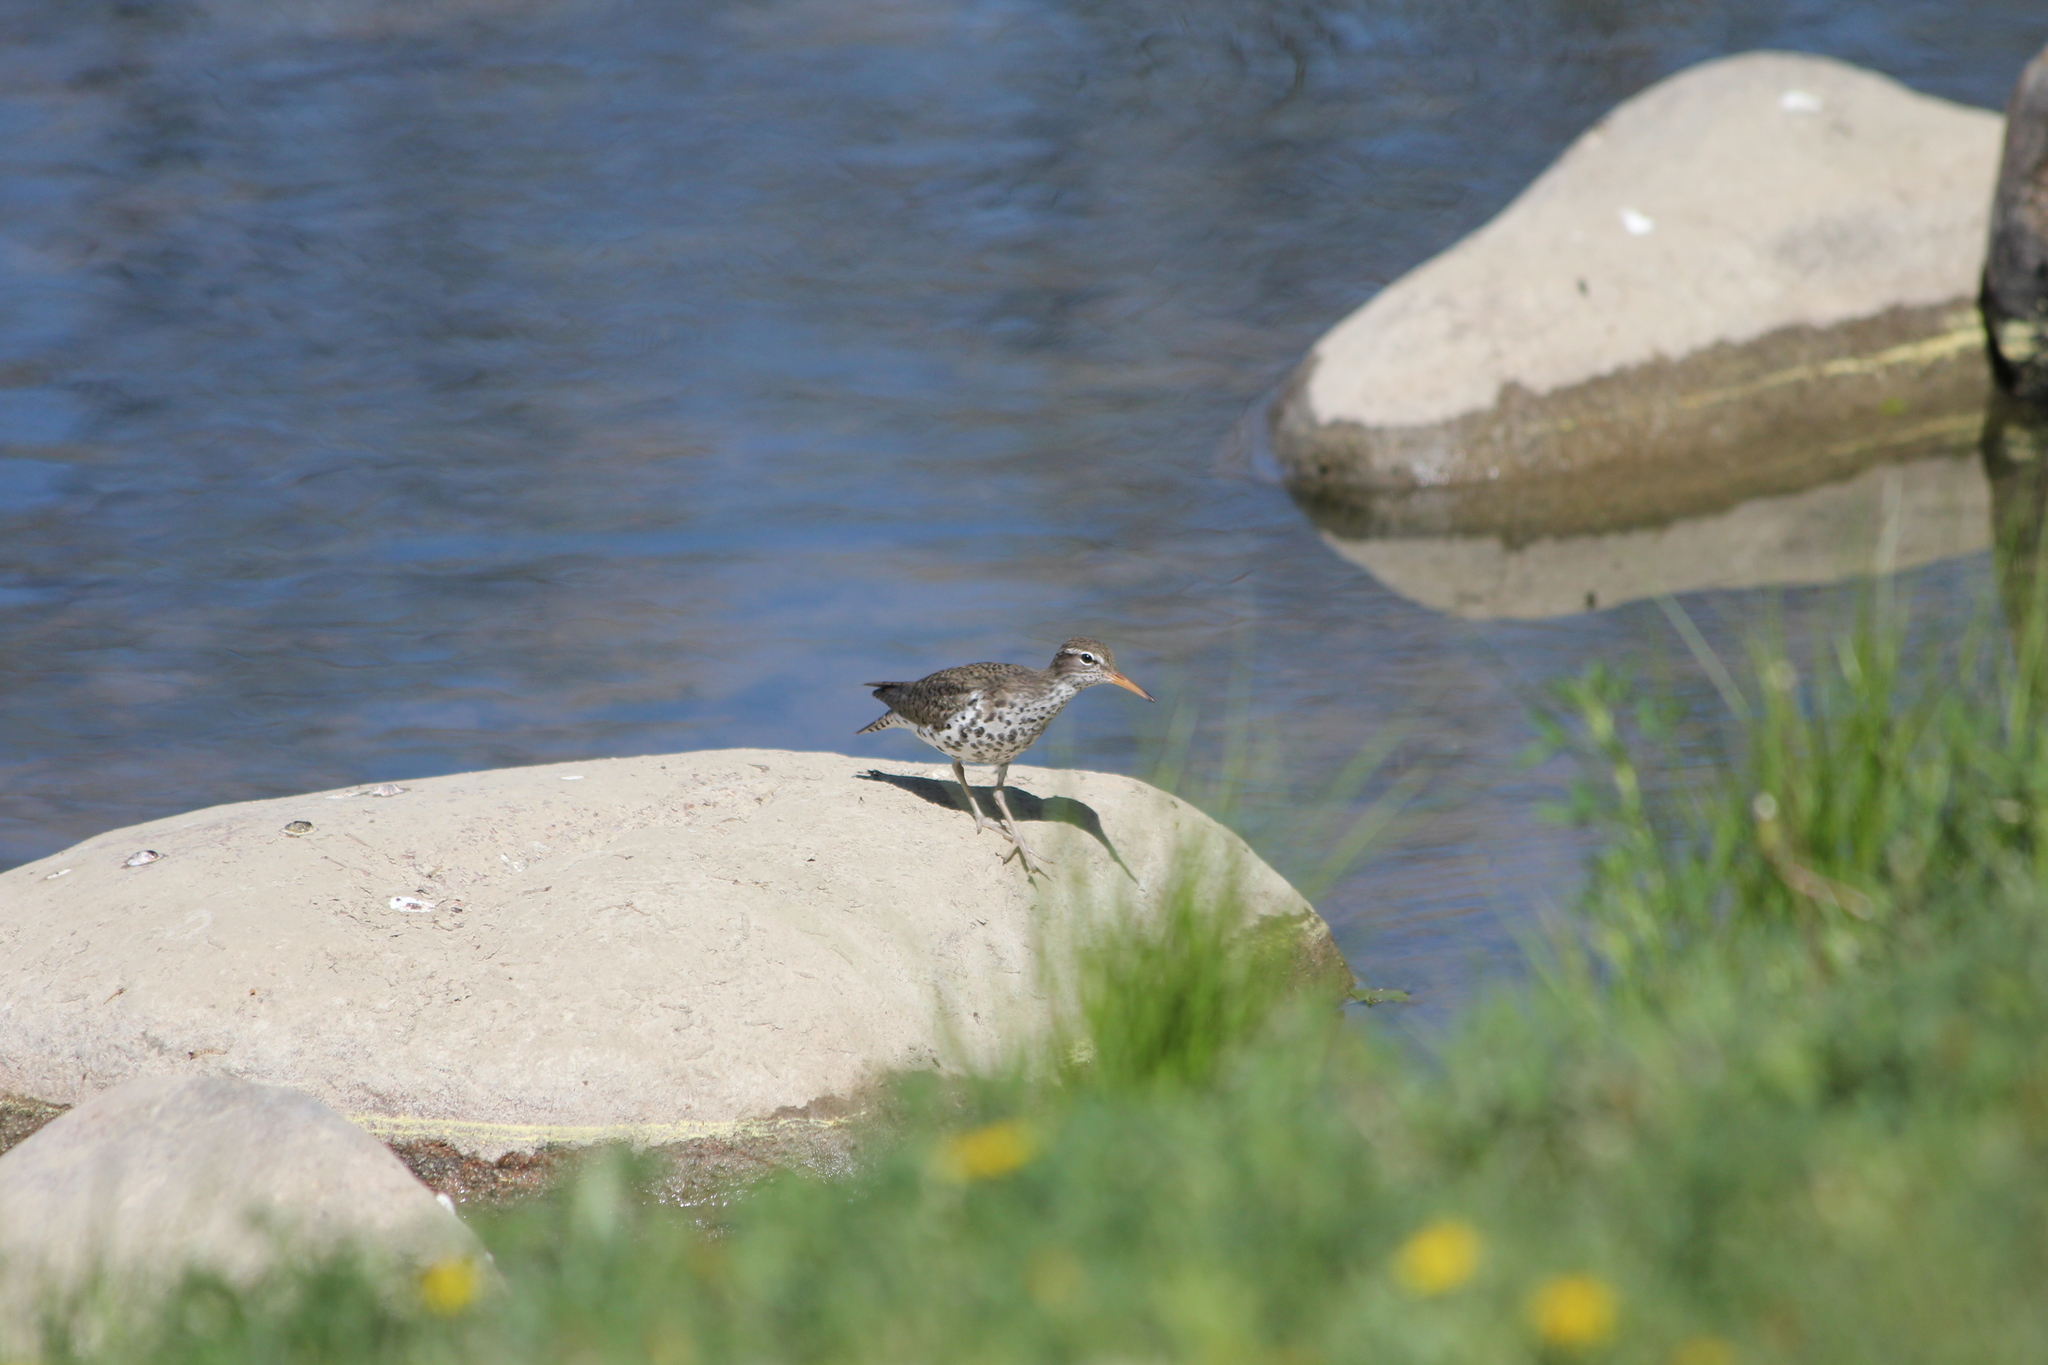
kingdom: Animalia
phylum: Chordata
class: Aves
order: Charadriiformes
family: Scolopacidae
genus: Actitis
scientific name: Actitis macularius
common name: Spotted sandpiper
